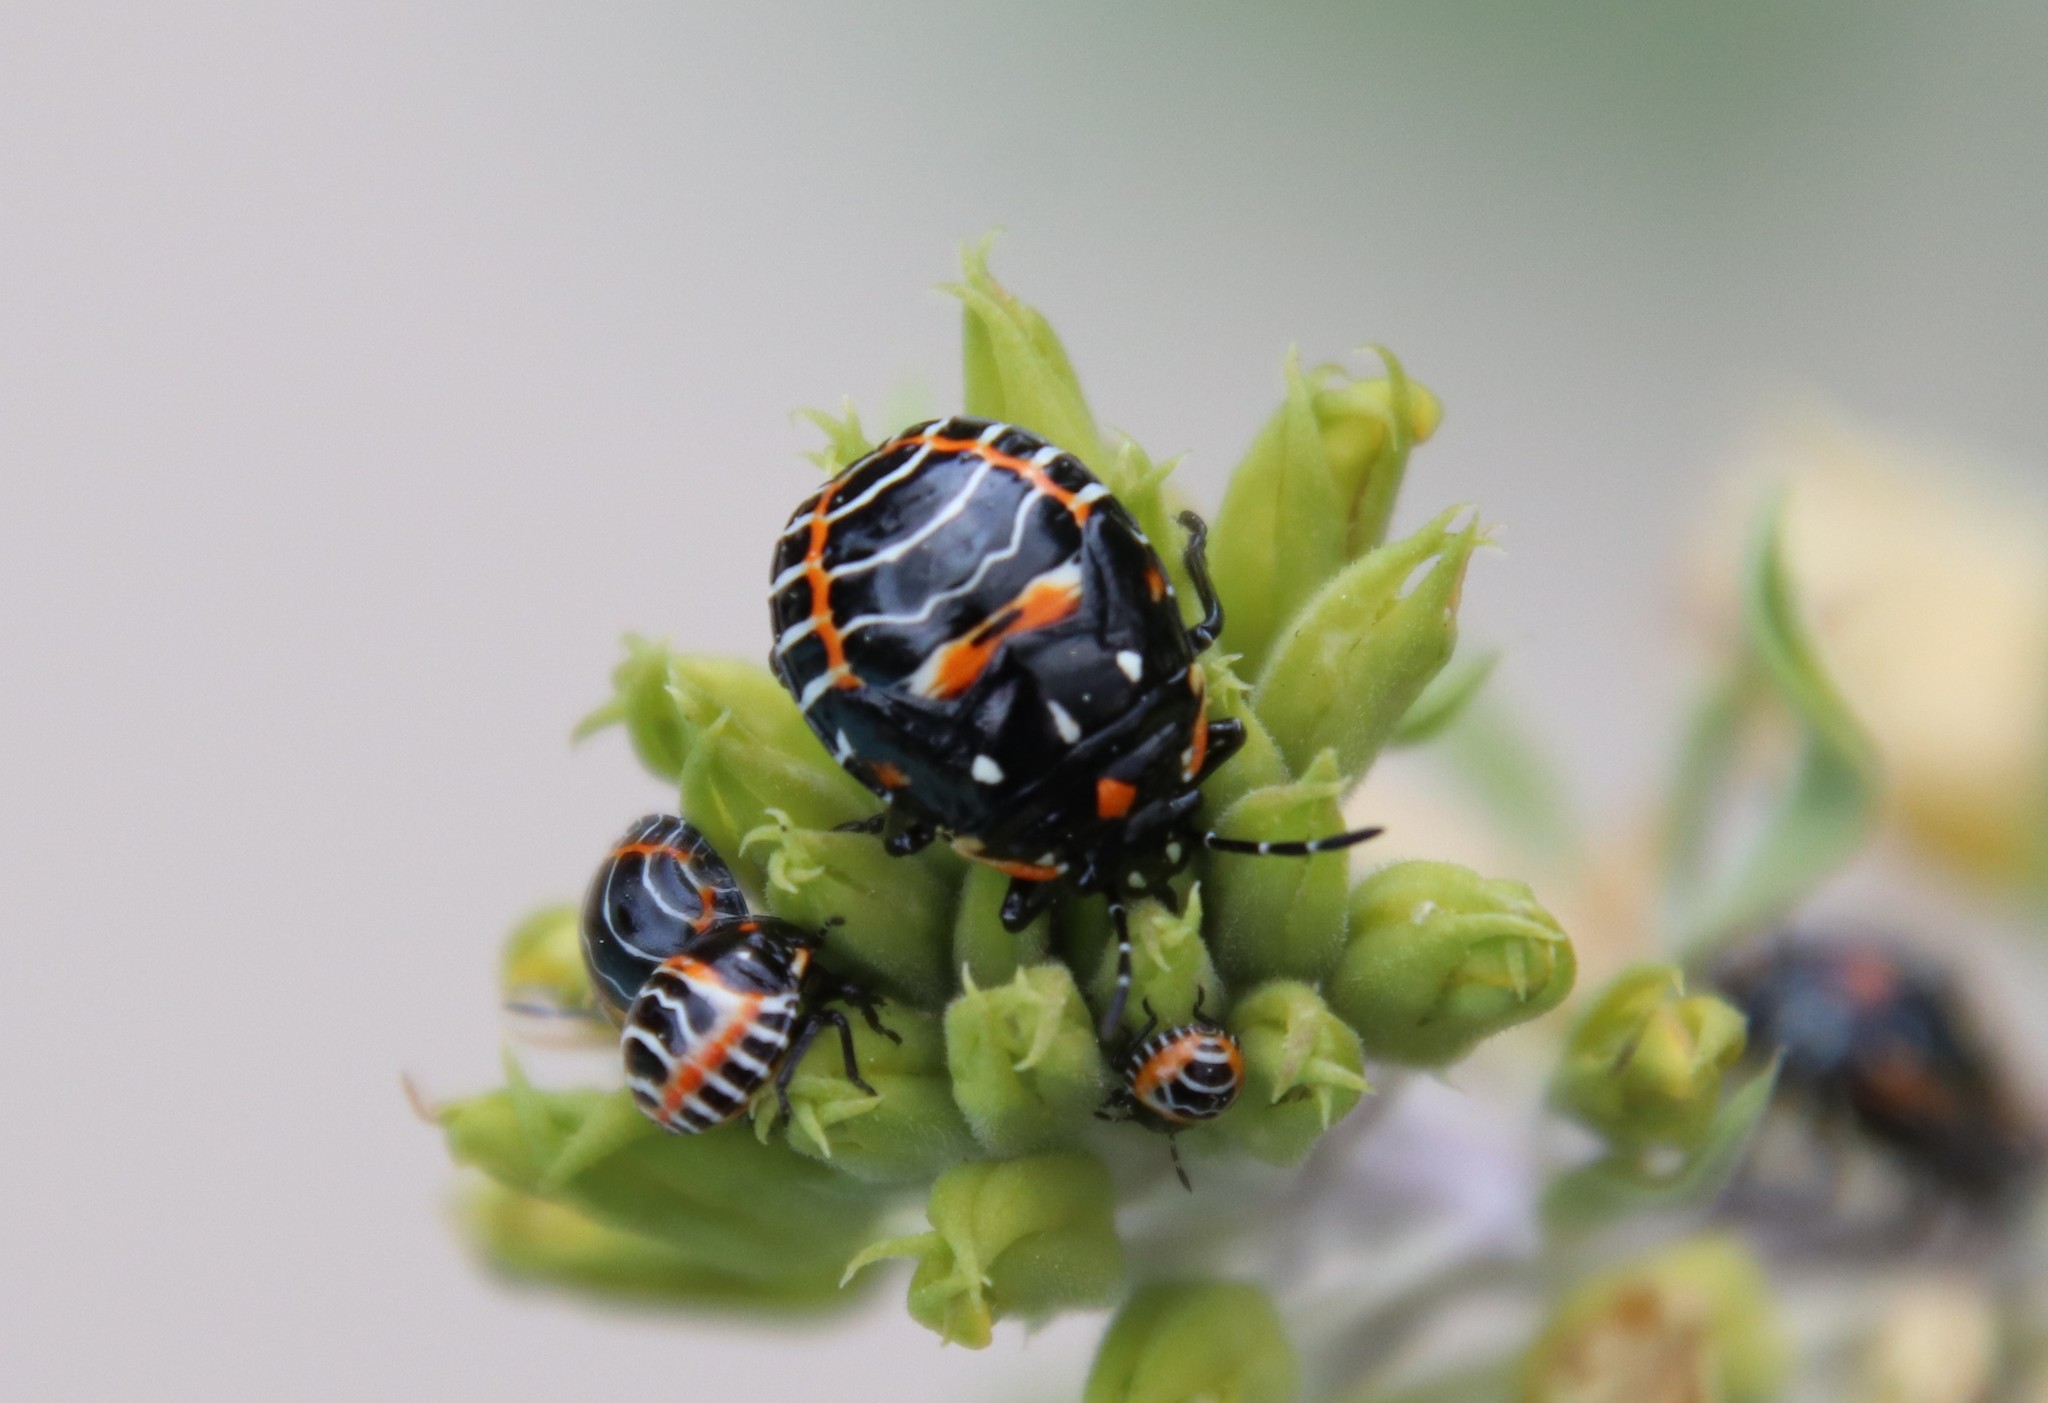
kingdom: Animalia
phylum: Arthropoda
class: Insecta
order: Hemiptera
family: Pentatomidae
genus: Murgantia
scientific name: Murgantia histrionica
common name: Harlequin bug
